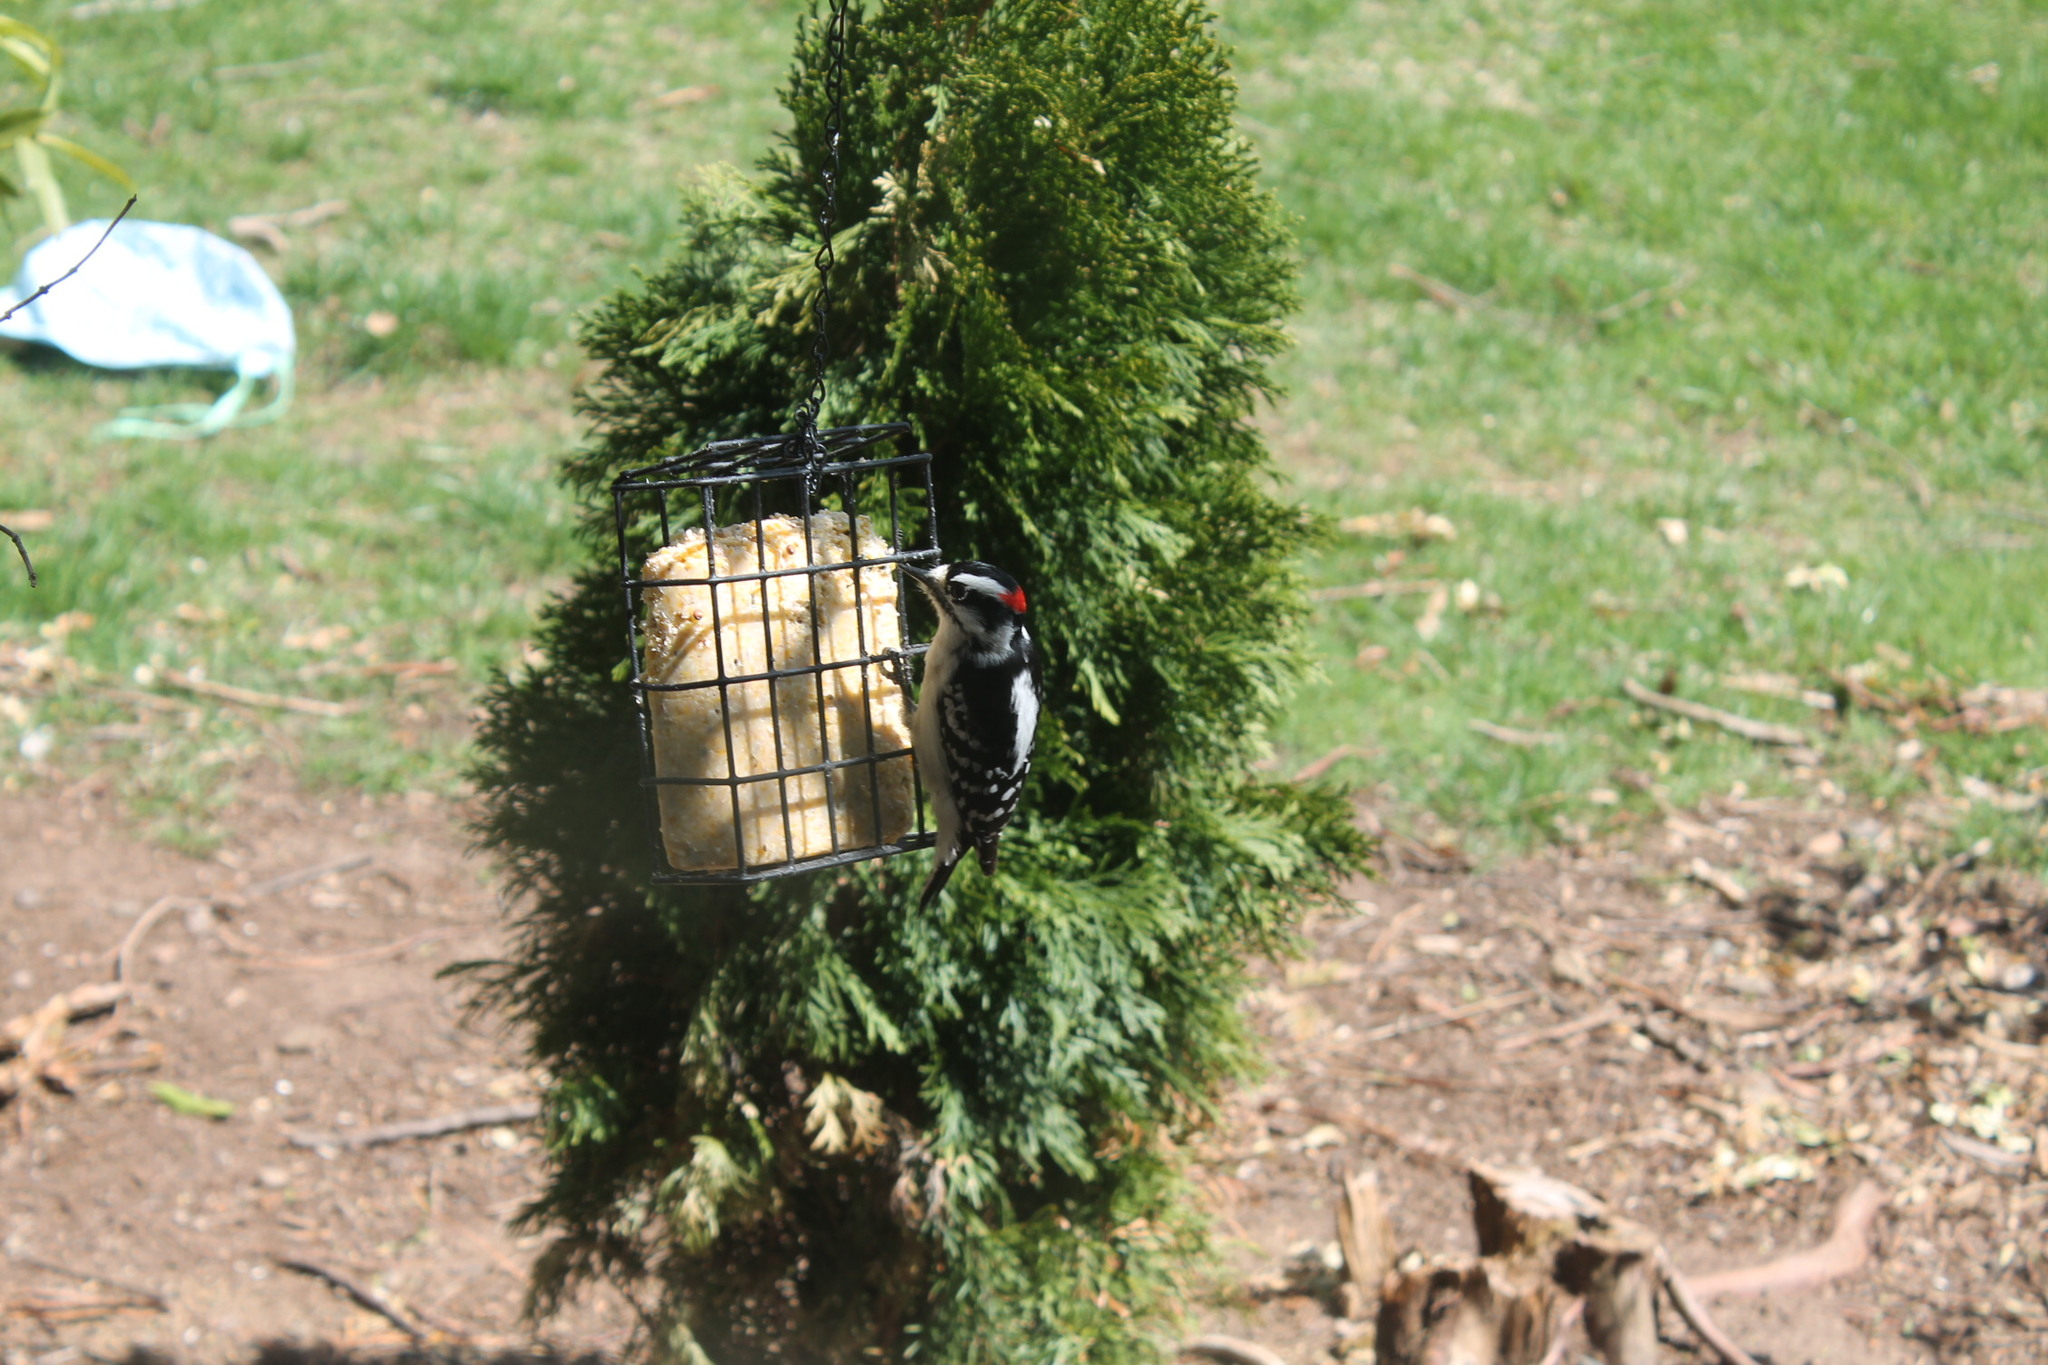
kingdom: Animalia
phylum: Chordata
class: Aves
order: Piciformes
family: Picidae
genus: Dryobates
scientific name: Dryobates pubescens
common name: Downy woodpecker
